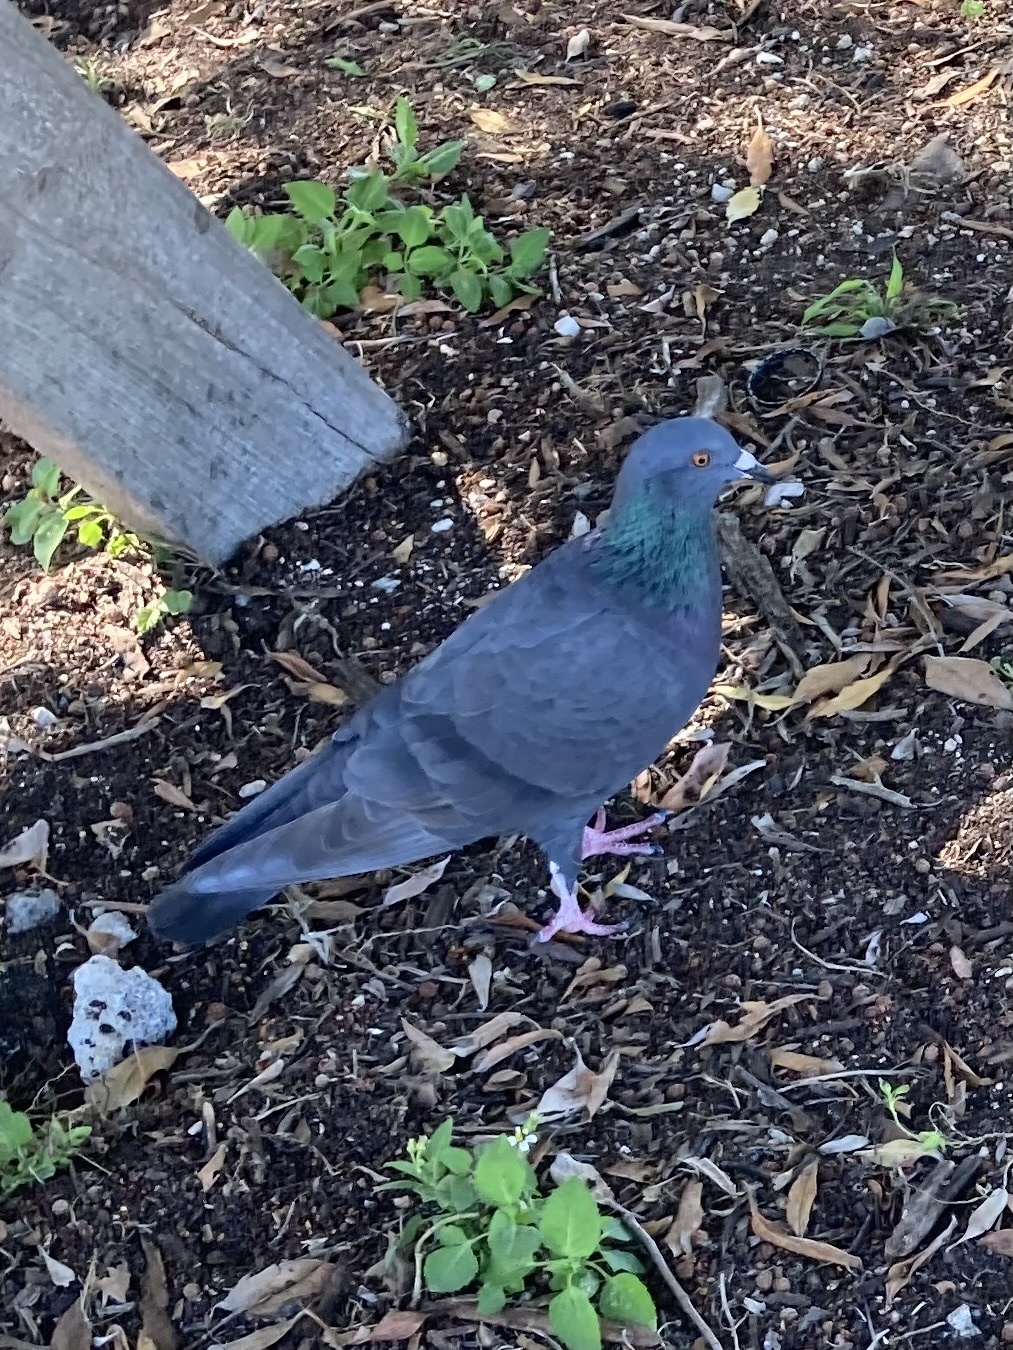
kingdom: Animalia
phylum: Chordata
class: Aves
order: Columbiformes
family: Columbidae
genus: Columba
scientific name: Columba livia
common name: Rock pigeon
